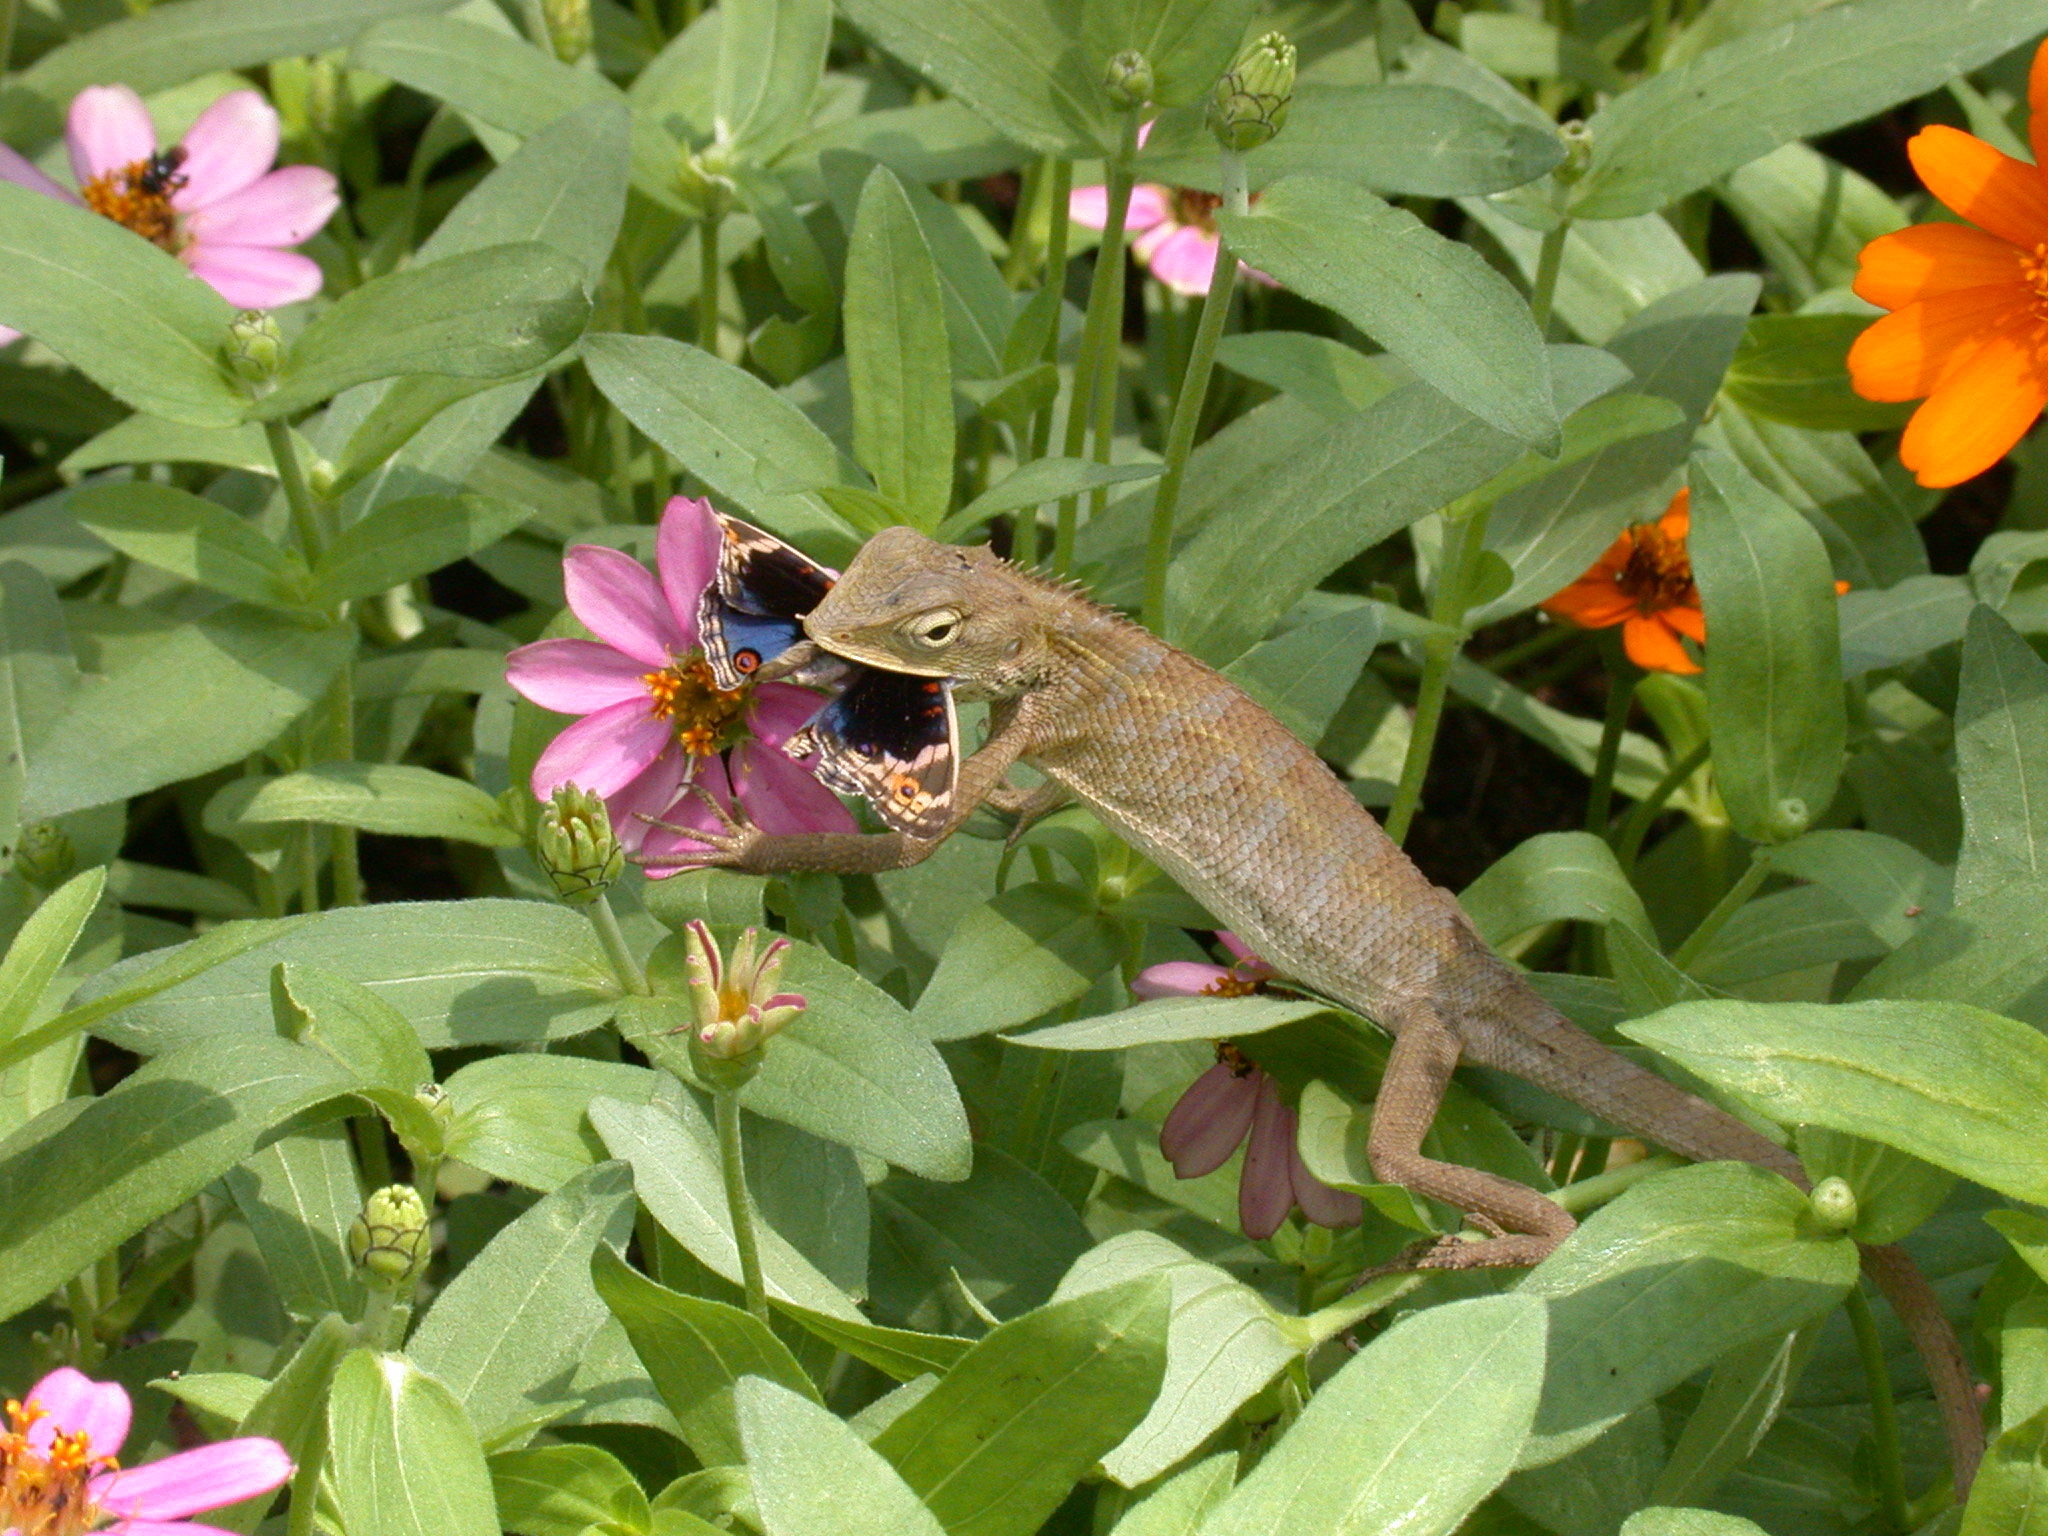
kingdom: Animalia
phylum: Chordata
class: Squamata
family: Agamidae
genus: Calotes
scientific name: Calotes versicolor
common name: Oriental garden lizard
